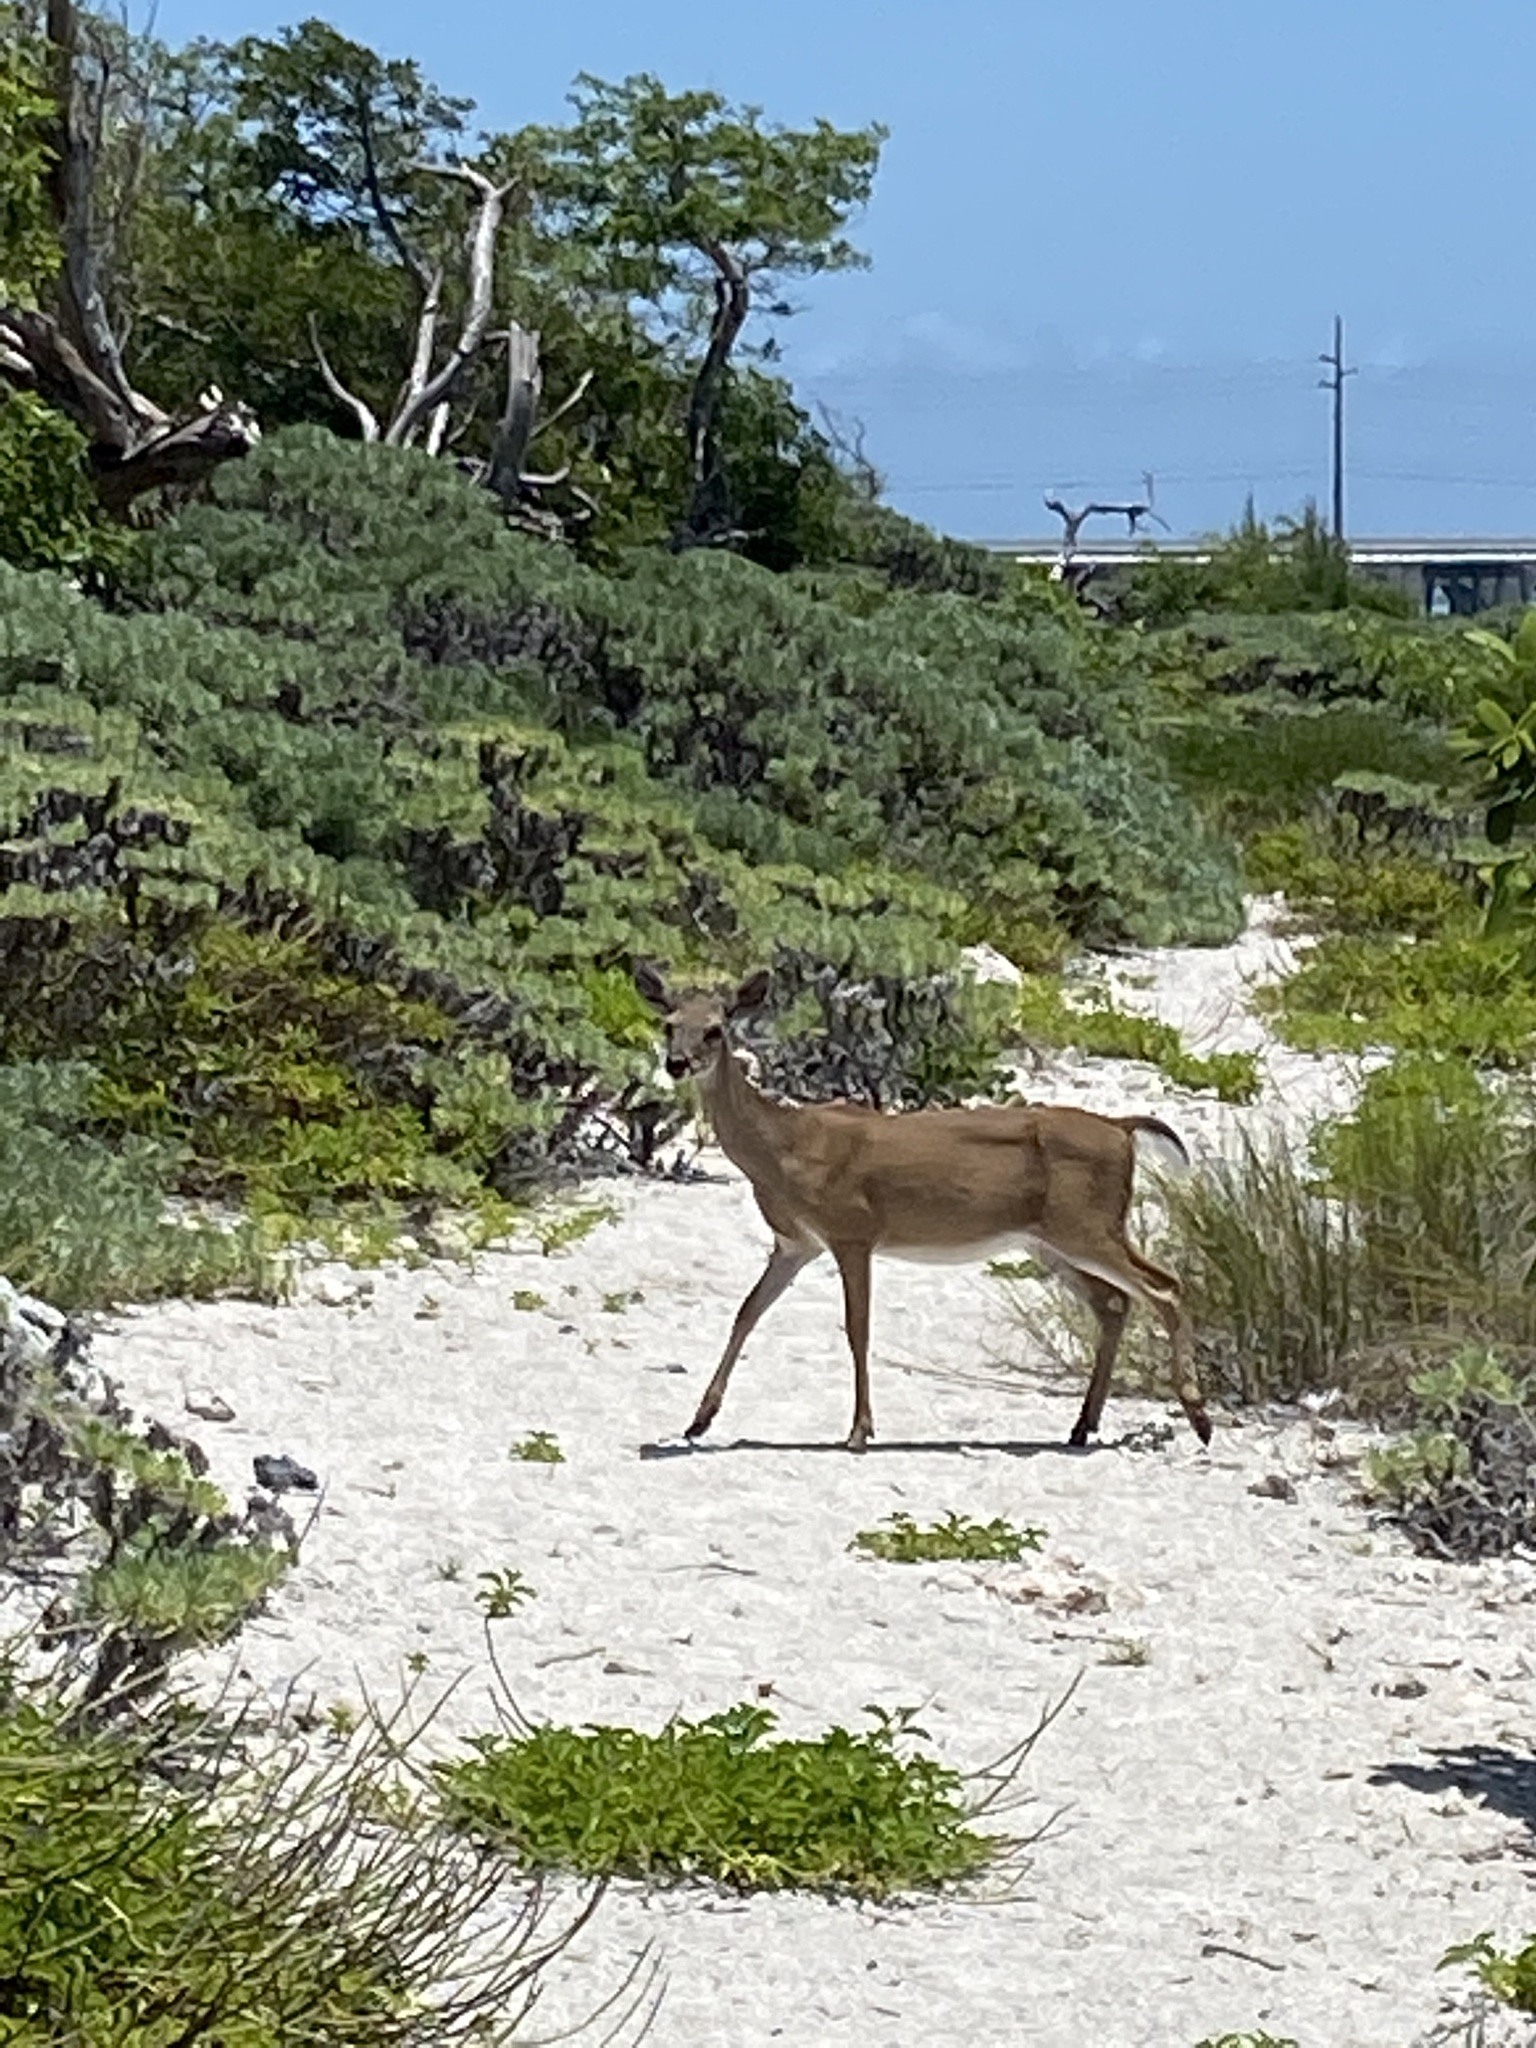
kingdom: Animalia
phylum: Chordata
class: Mammalia
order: Artiodactyla
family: Cervidae
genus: Odocoileus
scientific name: Odocoileus virginianus
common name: White-tailed deer
